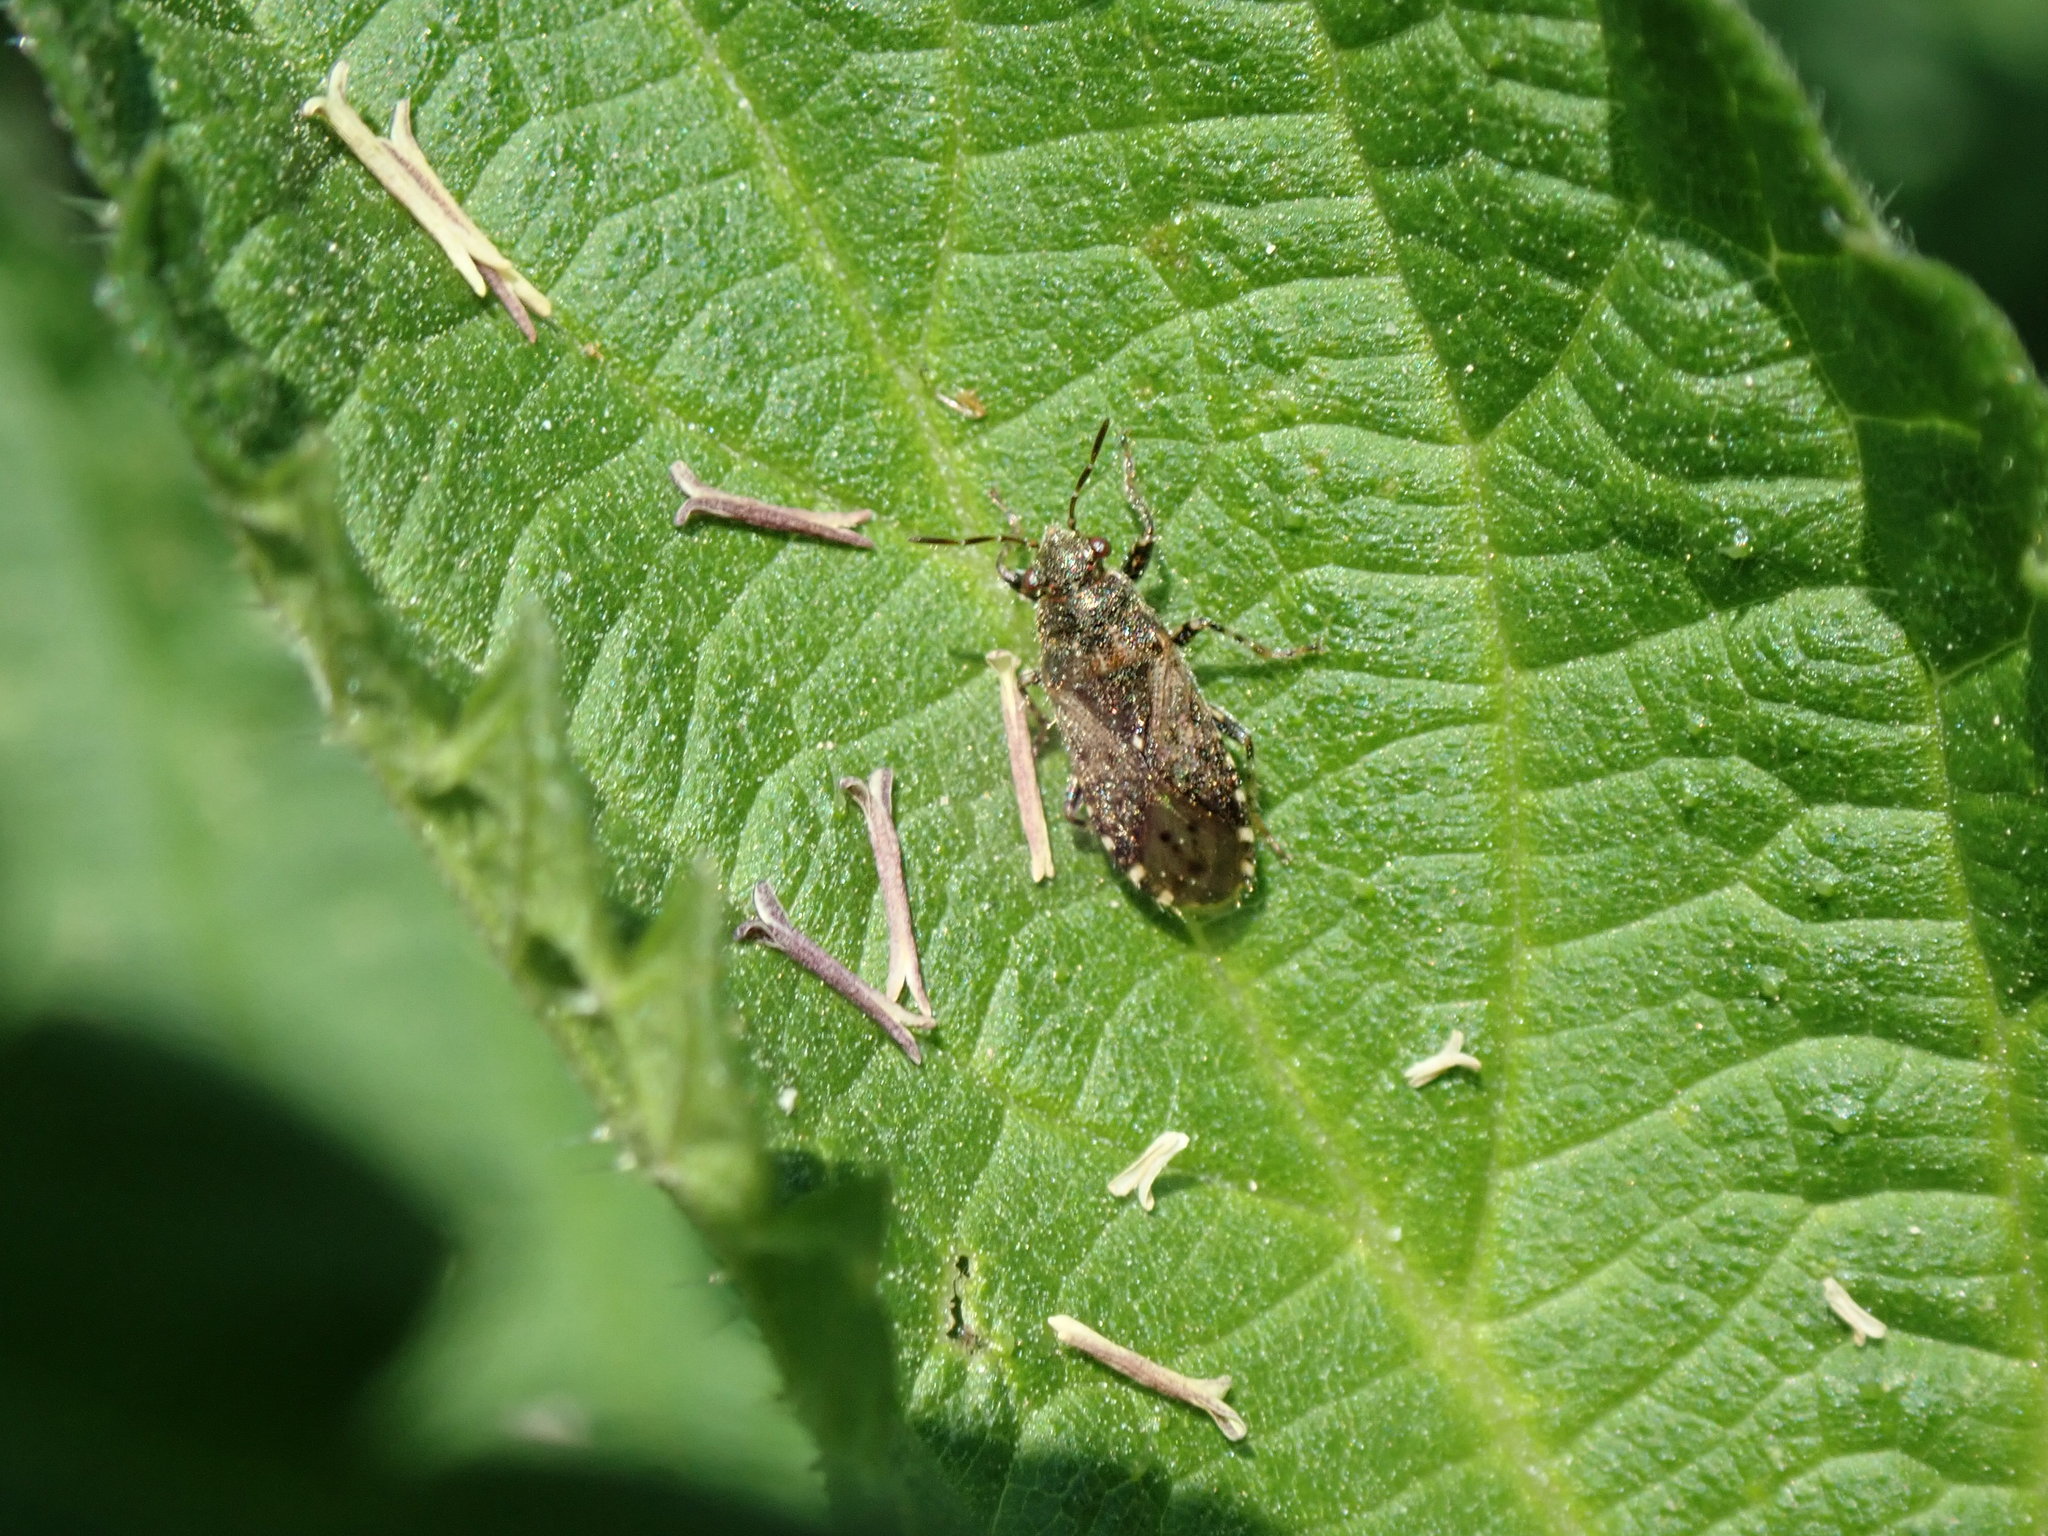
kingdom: Animalia
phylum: Arthropoda
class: Insecta
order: Hemiptera
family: Heterogastridae
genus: Heterogaster
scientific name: Heterogaster urticae
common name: Seed bug
